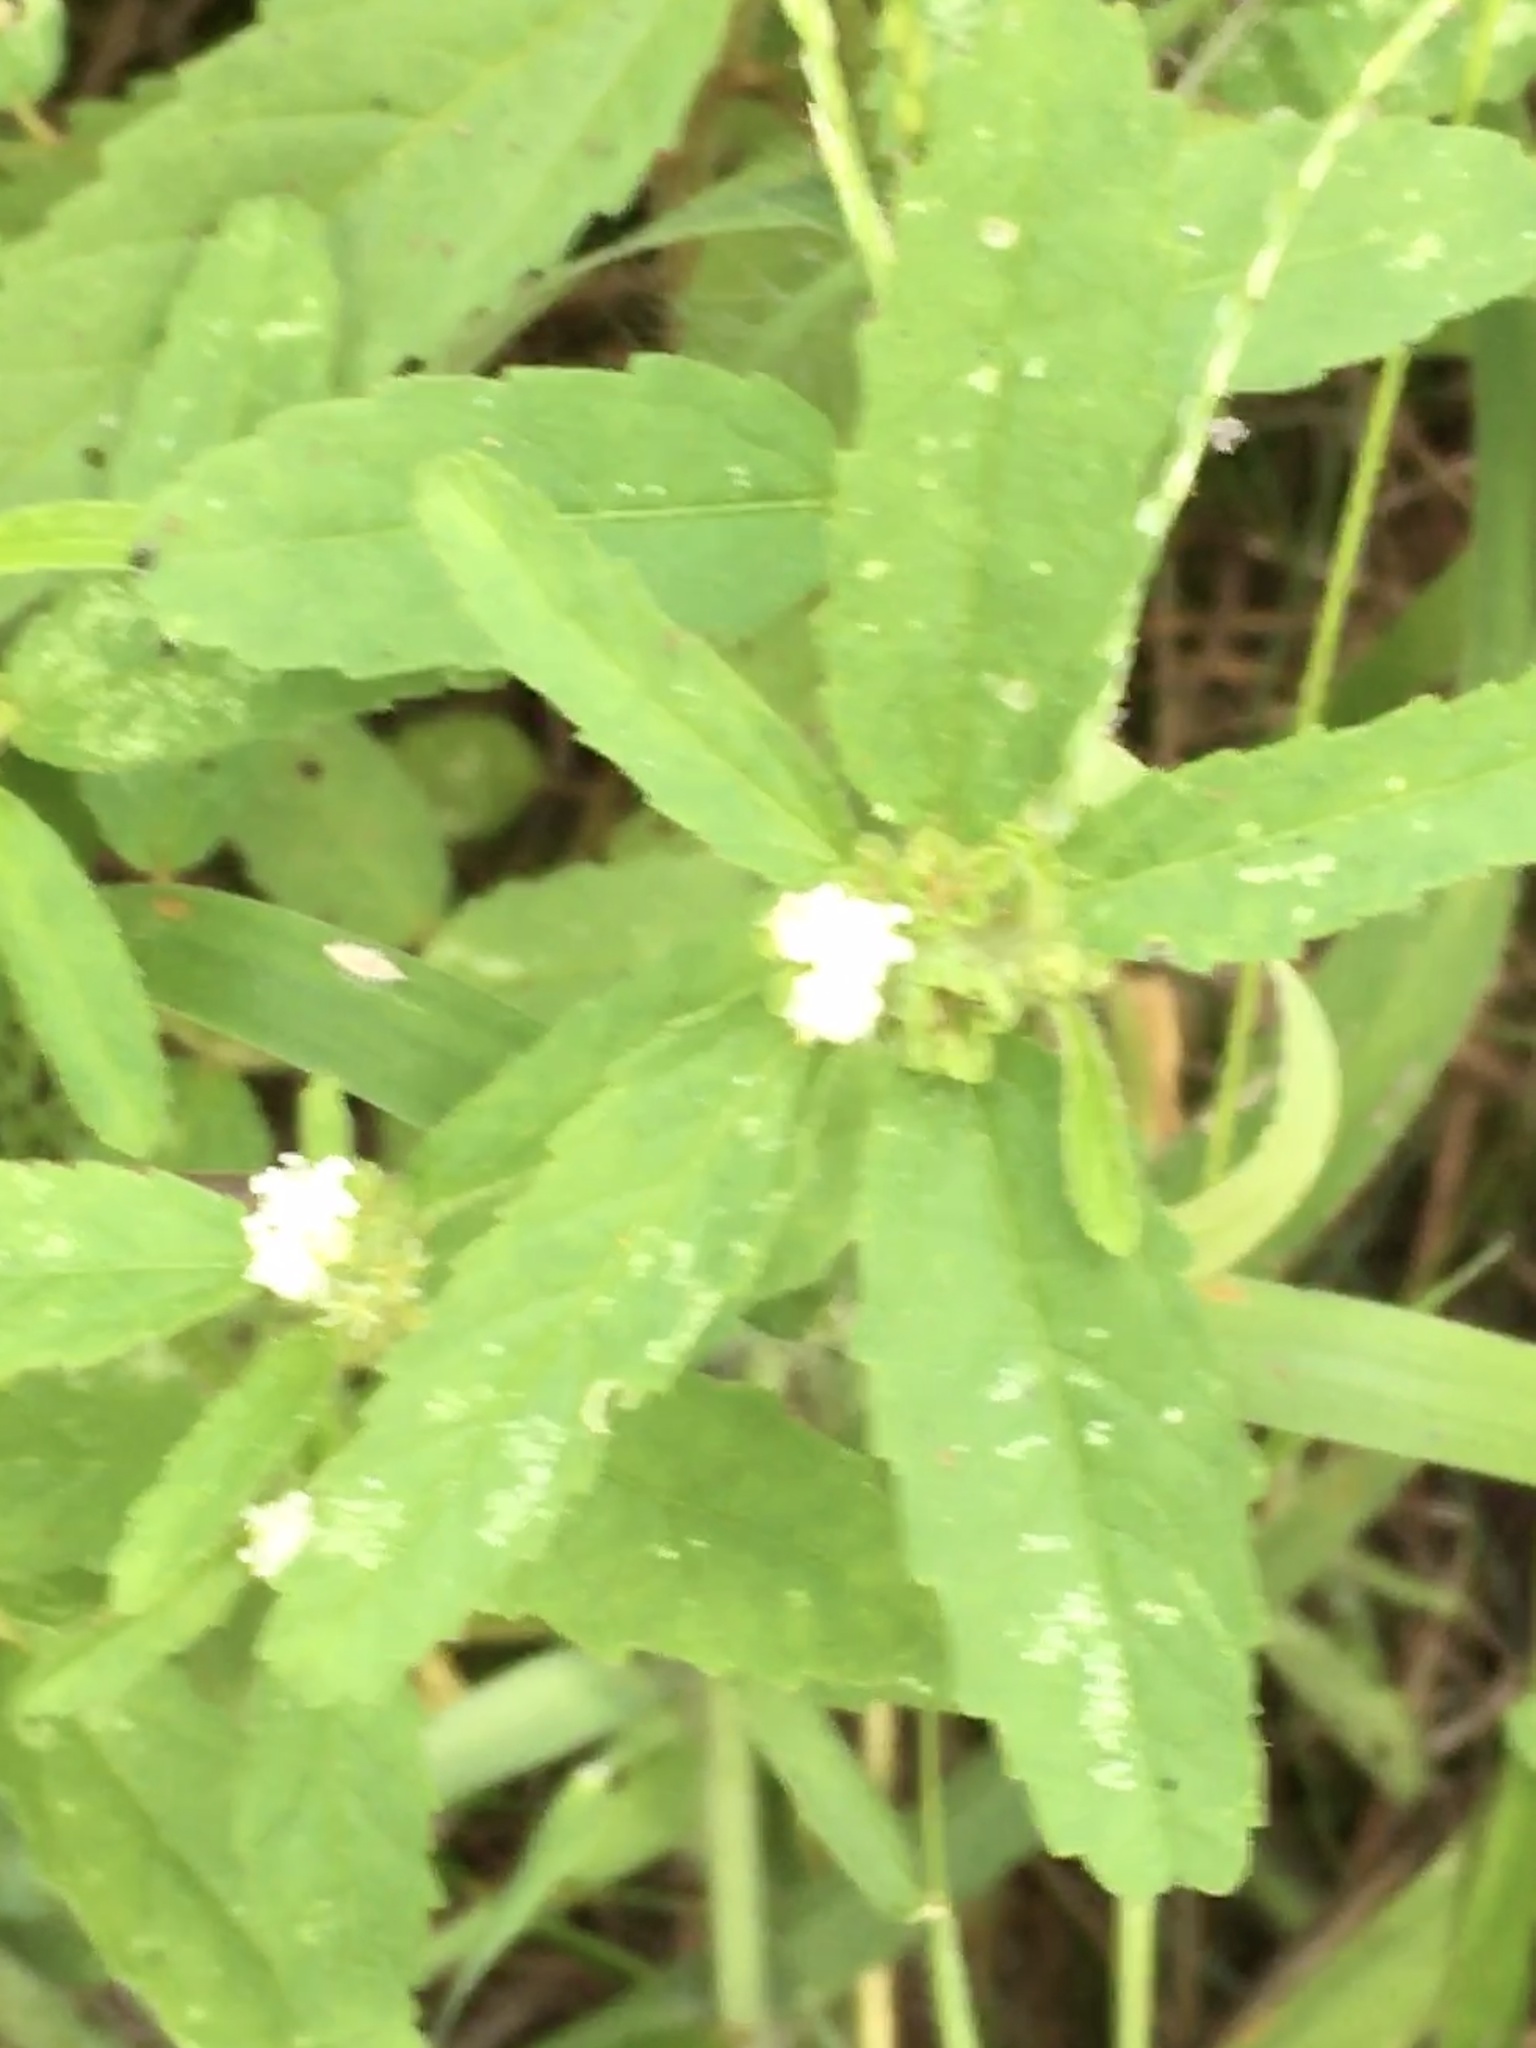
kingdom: Plantae
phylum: Tracheophyta
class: Magnoliopsida
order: Malpighiales
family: Euphorbiaceae
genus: Croton
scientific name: Croton glandulosus
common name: Tropic croton
